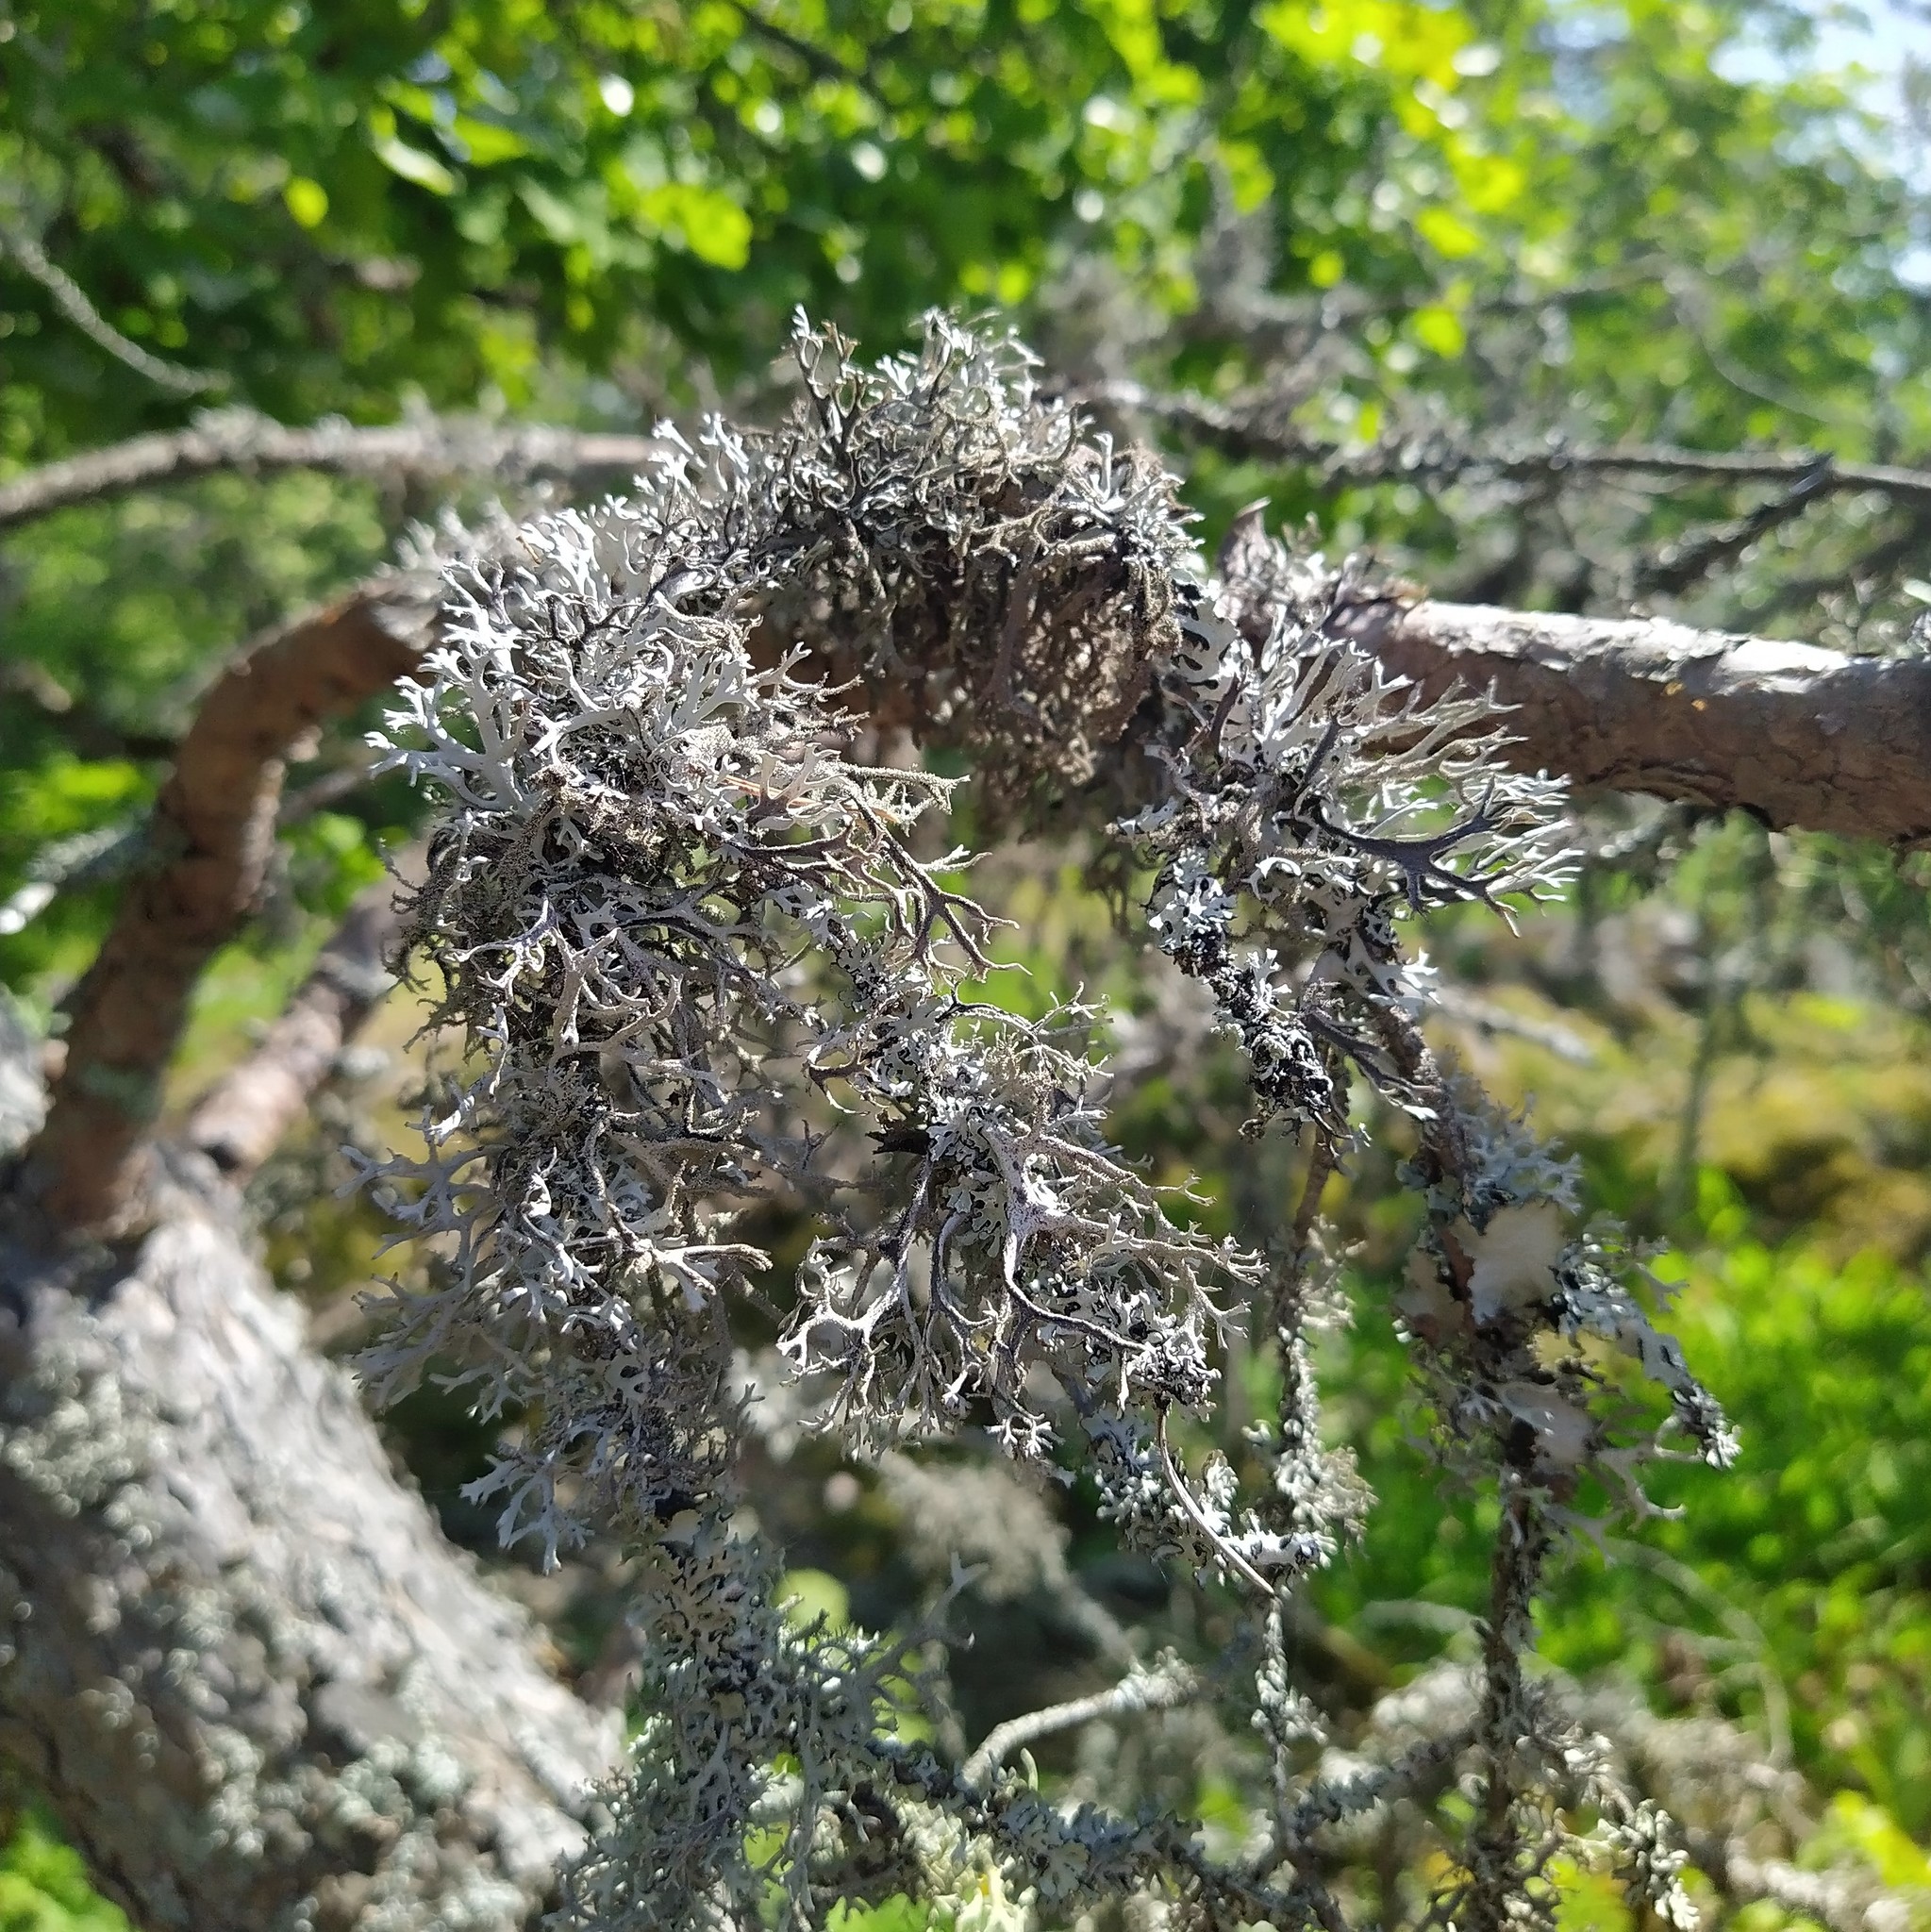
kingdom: Fungi
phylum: Ascomycota
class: Lecanoromycetes
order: Lecanorales
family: Parmeliaceae
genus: Pseudevernia
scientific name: Pseudevernia furfuracea
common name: Tree moss
